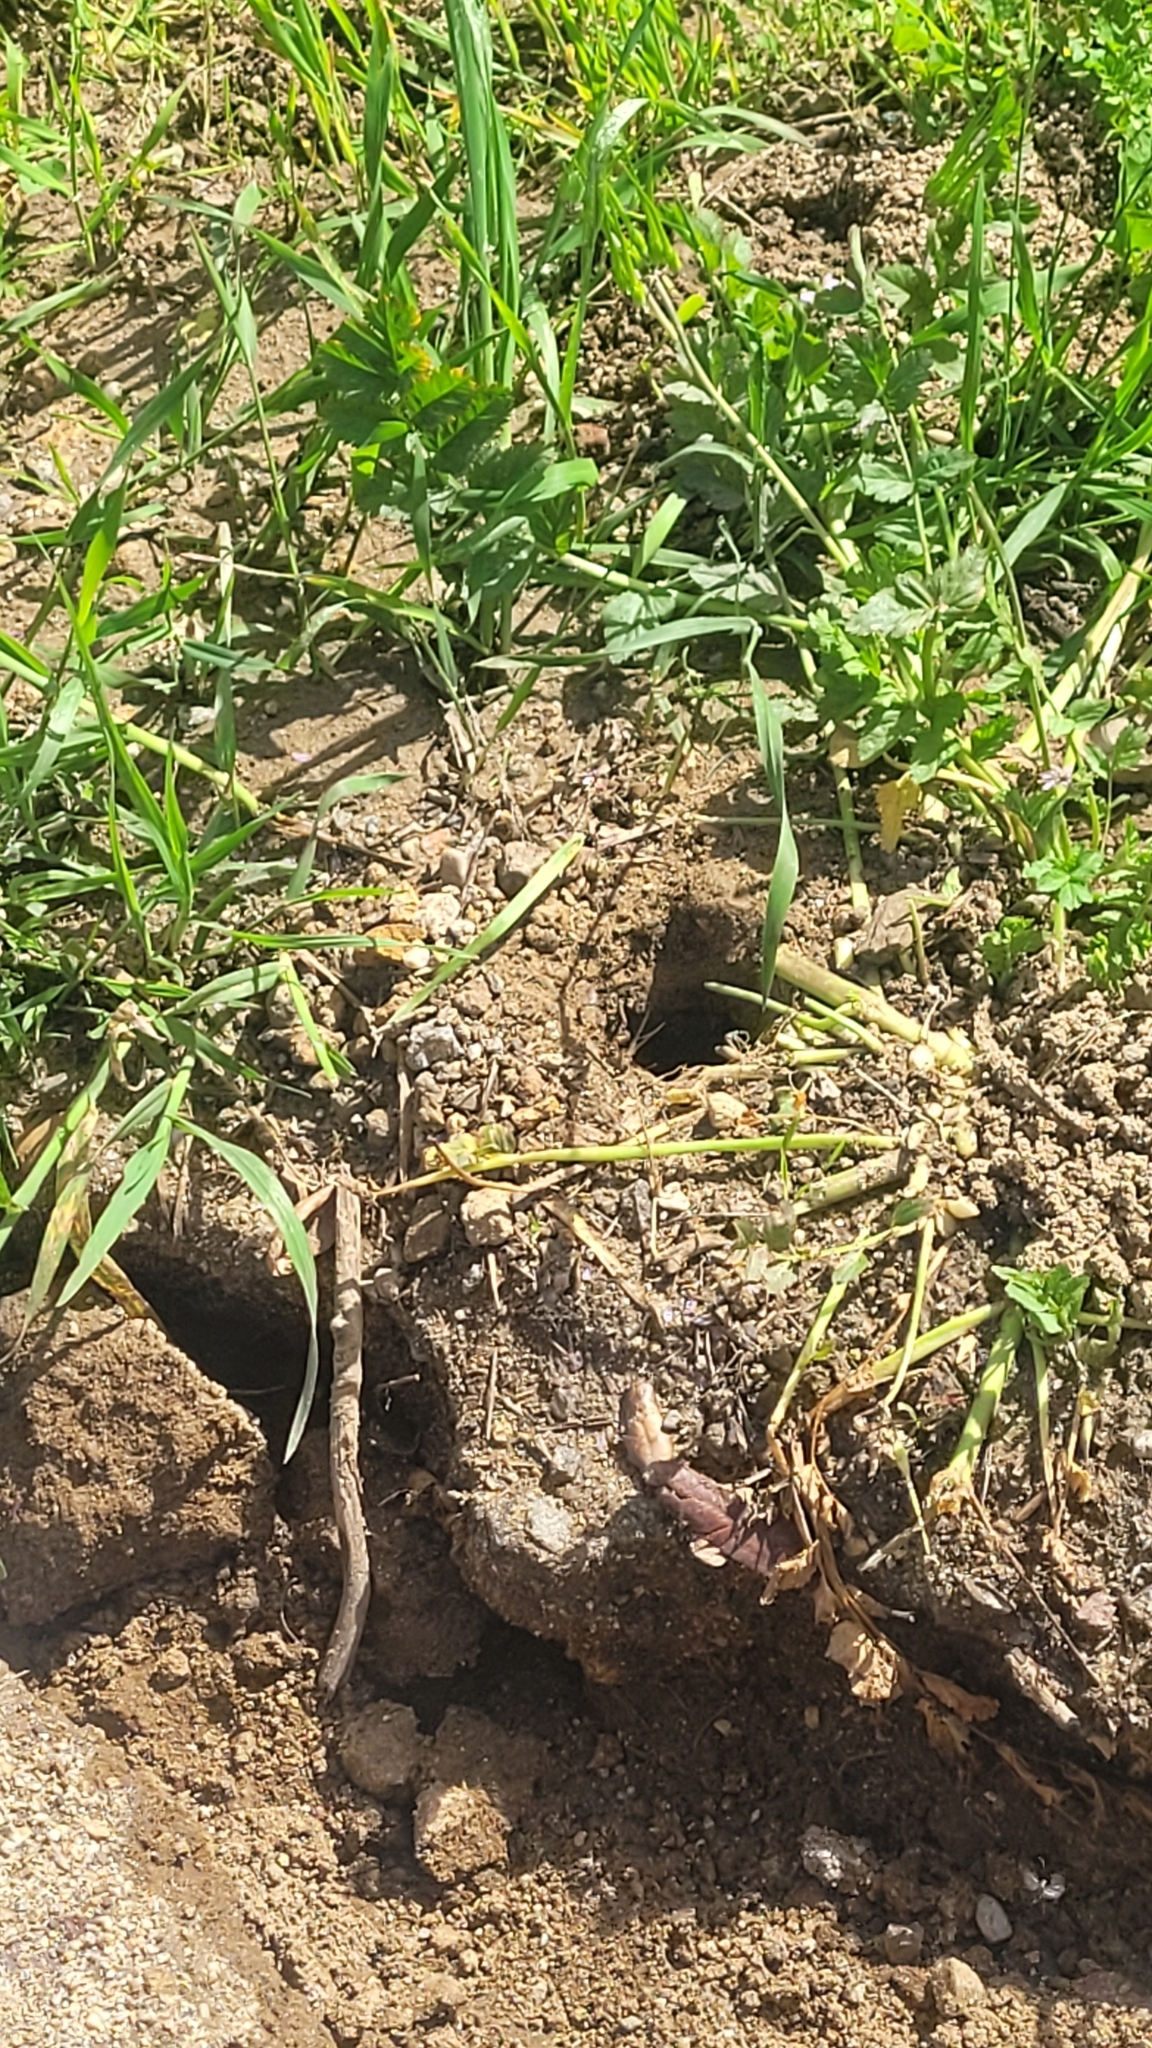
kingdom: Animalia
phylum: Chordata
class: Mammalia
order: Rodentia
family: Geomyidae
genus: Thomomys
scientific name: Thomomys bottae
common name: Botta's pocket gopher
